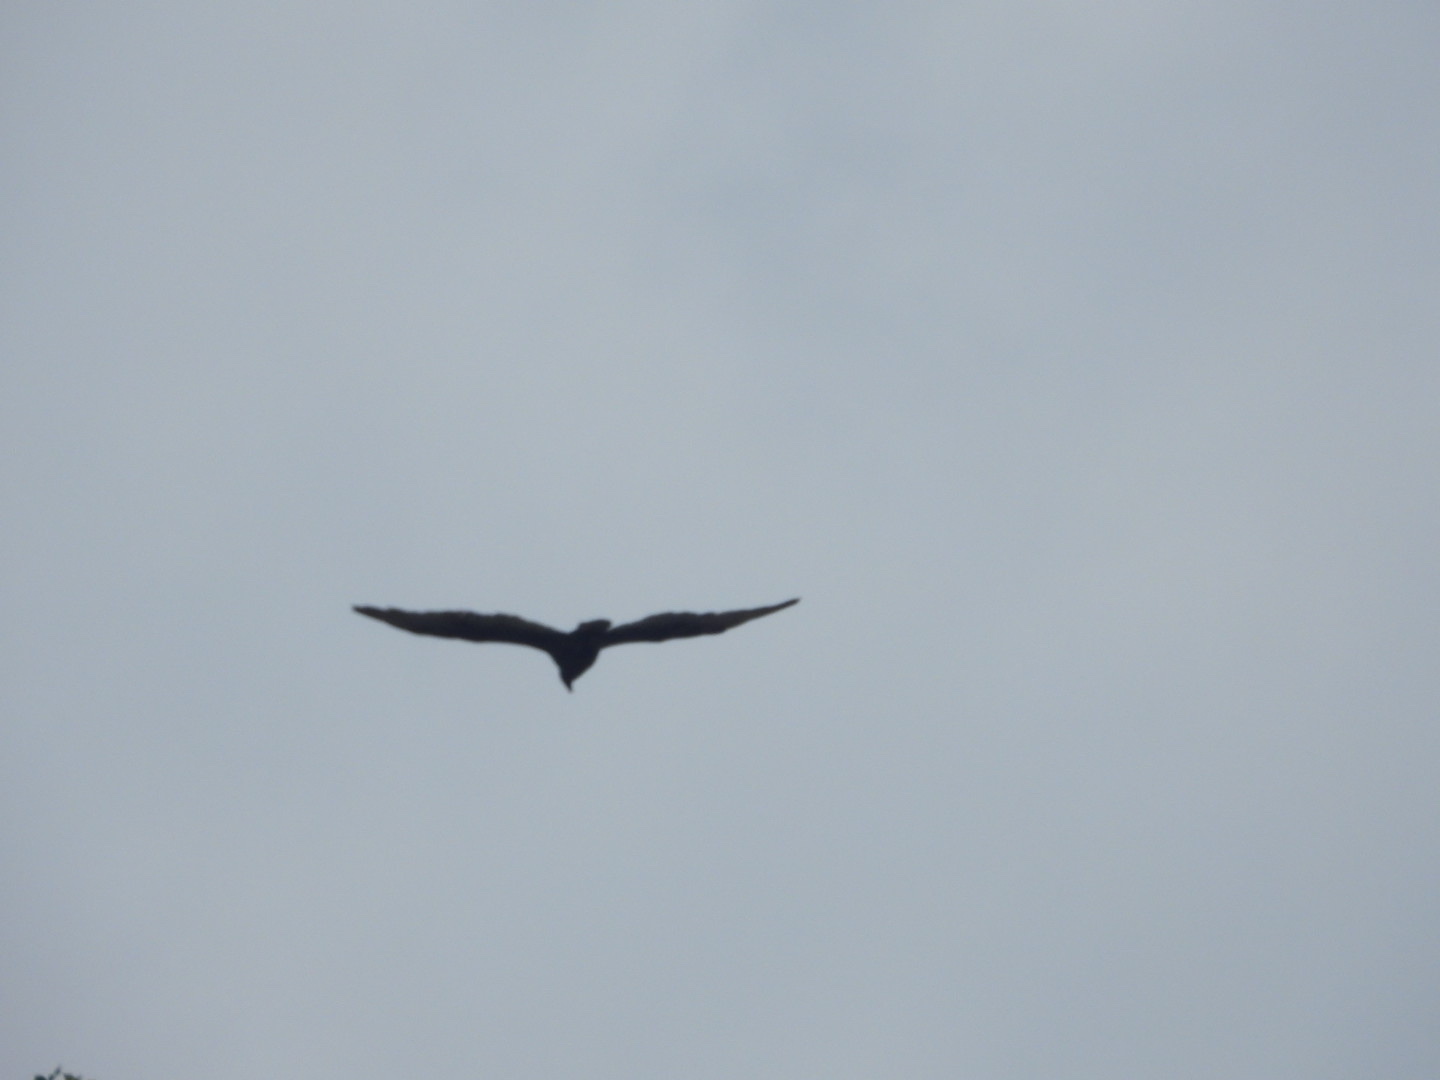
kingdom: Animalia
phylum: Chordata
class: Aves
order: Accipitriformes
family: Cathartidae
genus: Cathartes
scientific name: Cathartes aura
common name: Turkey vulture
